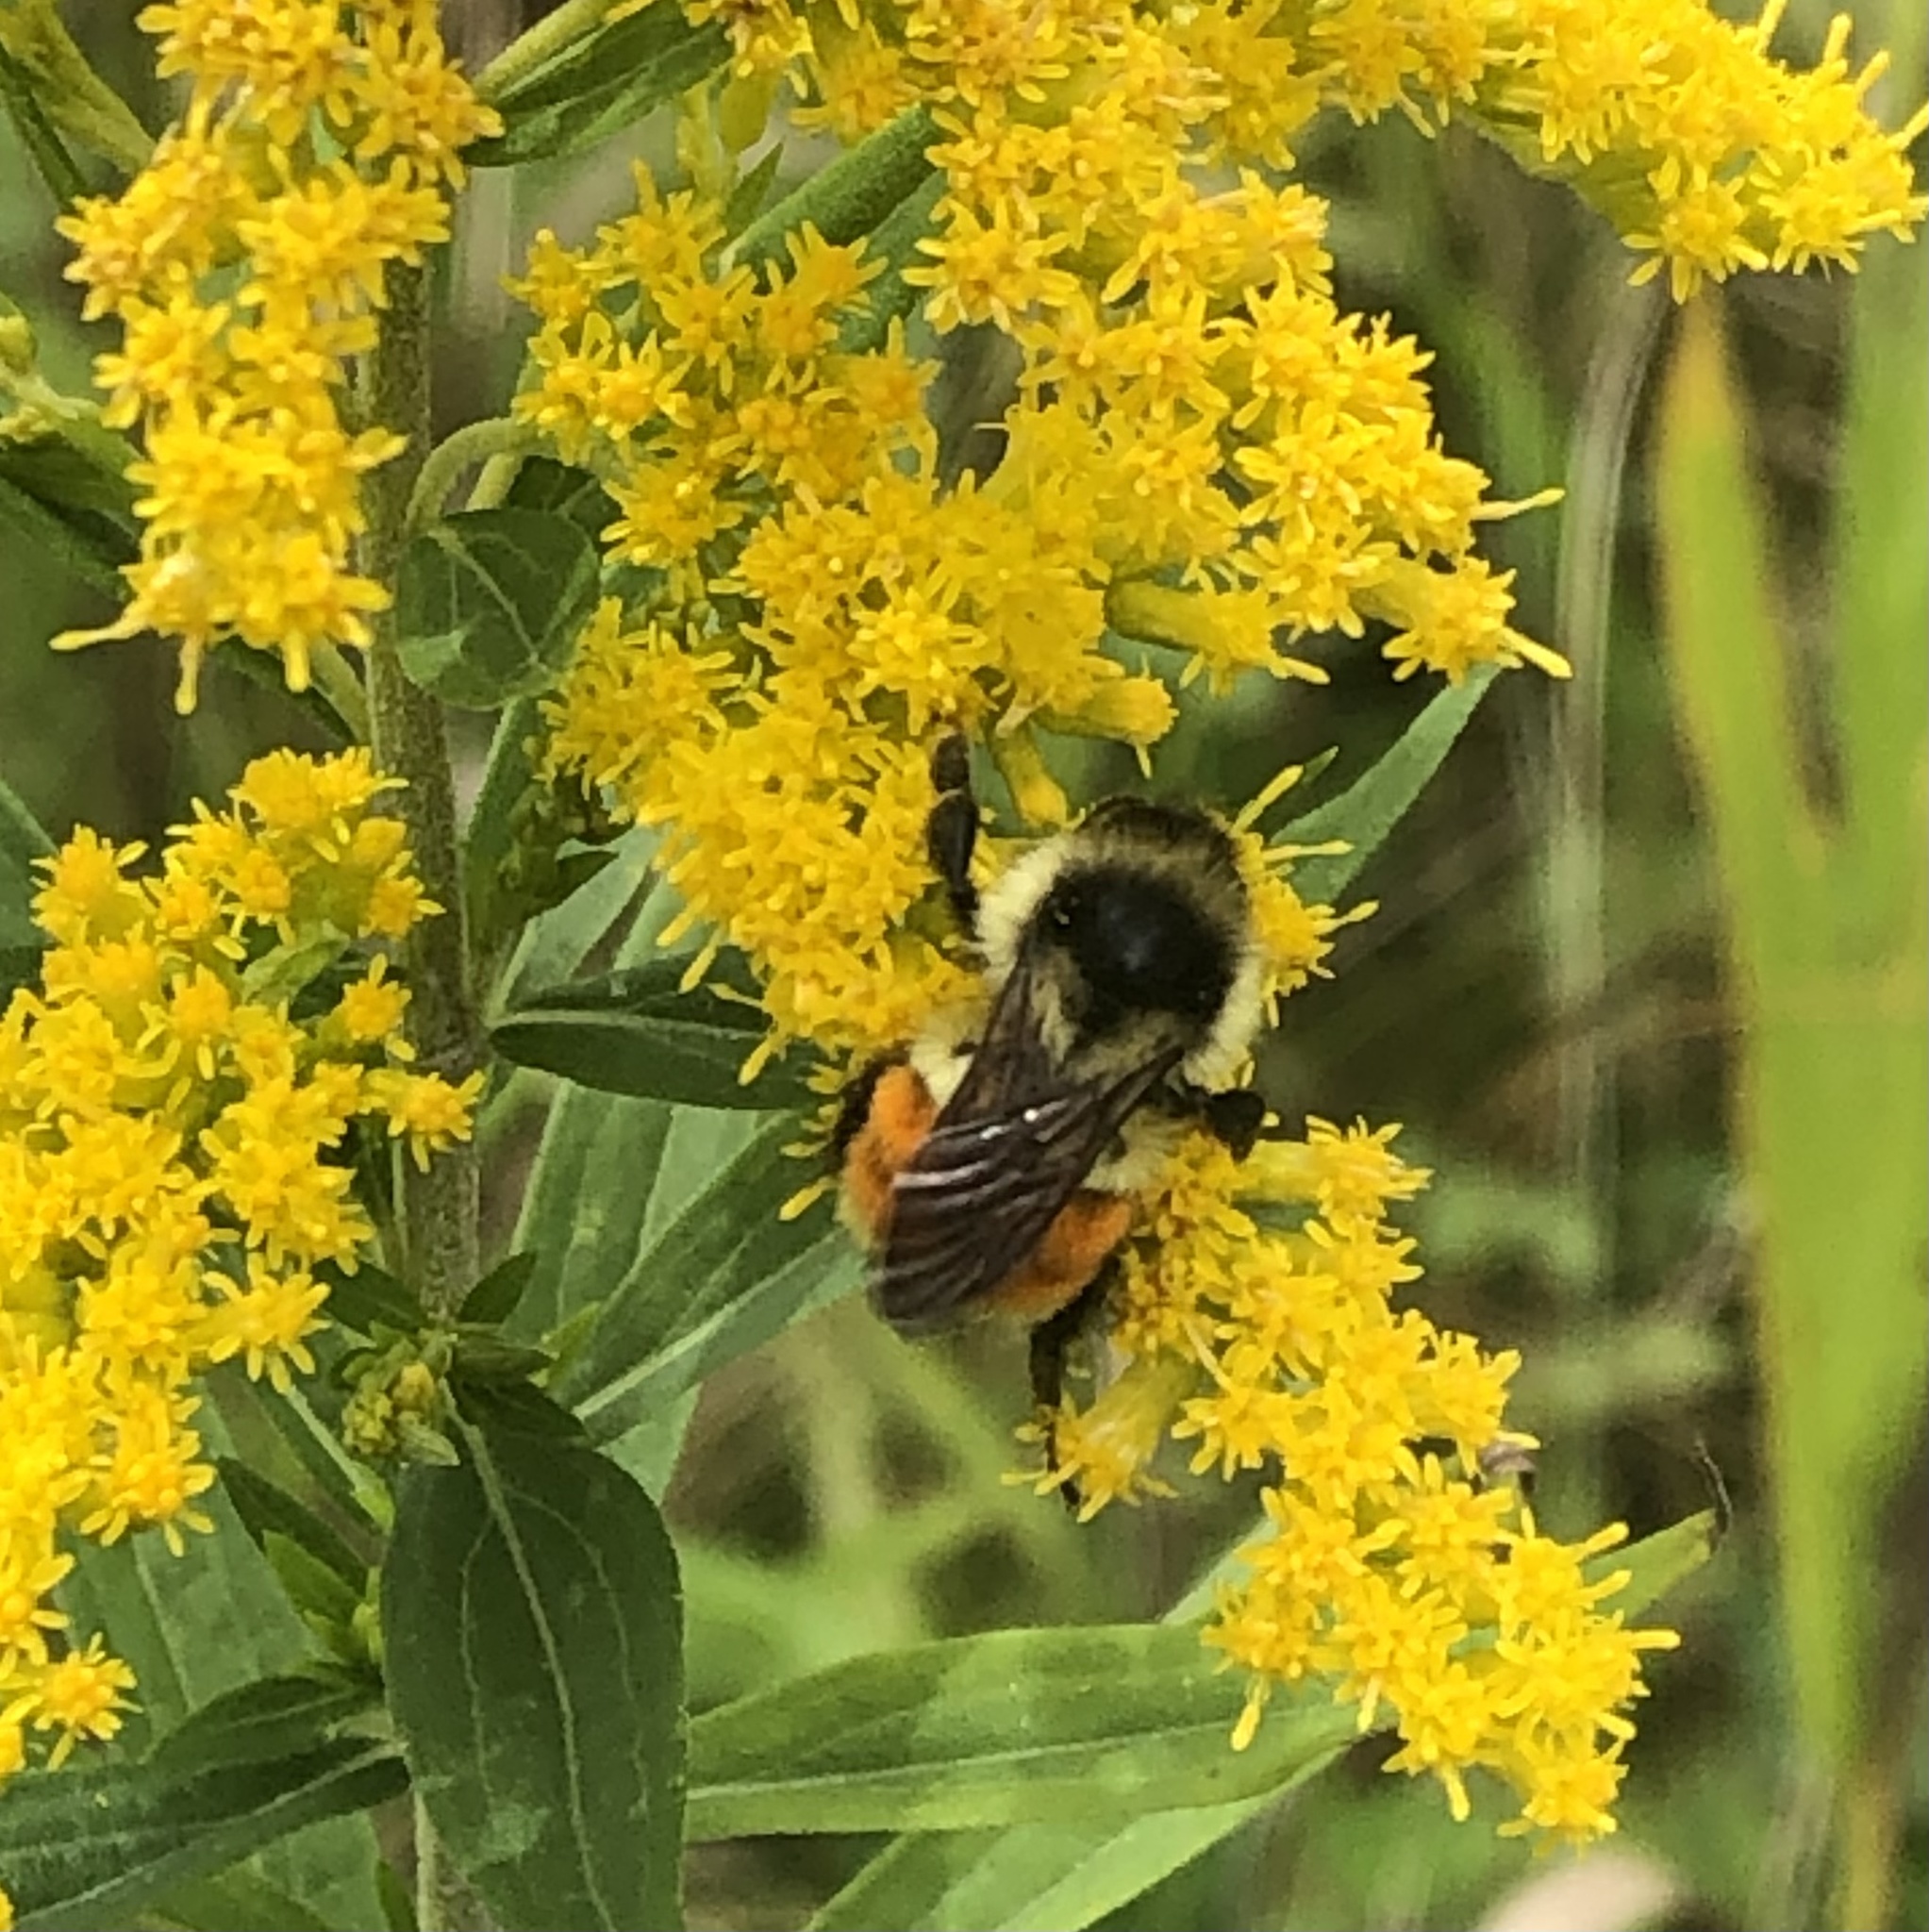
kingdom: Animalia
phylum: Arthropoda
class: Insecta
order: Hymenoptera
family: Apidae
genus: Bombus
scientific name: Bombus ternarius
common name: Tri-colored bumble bee
